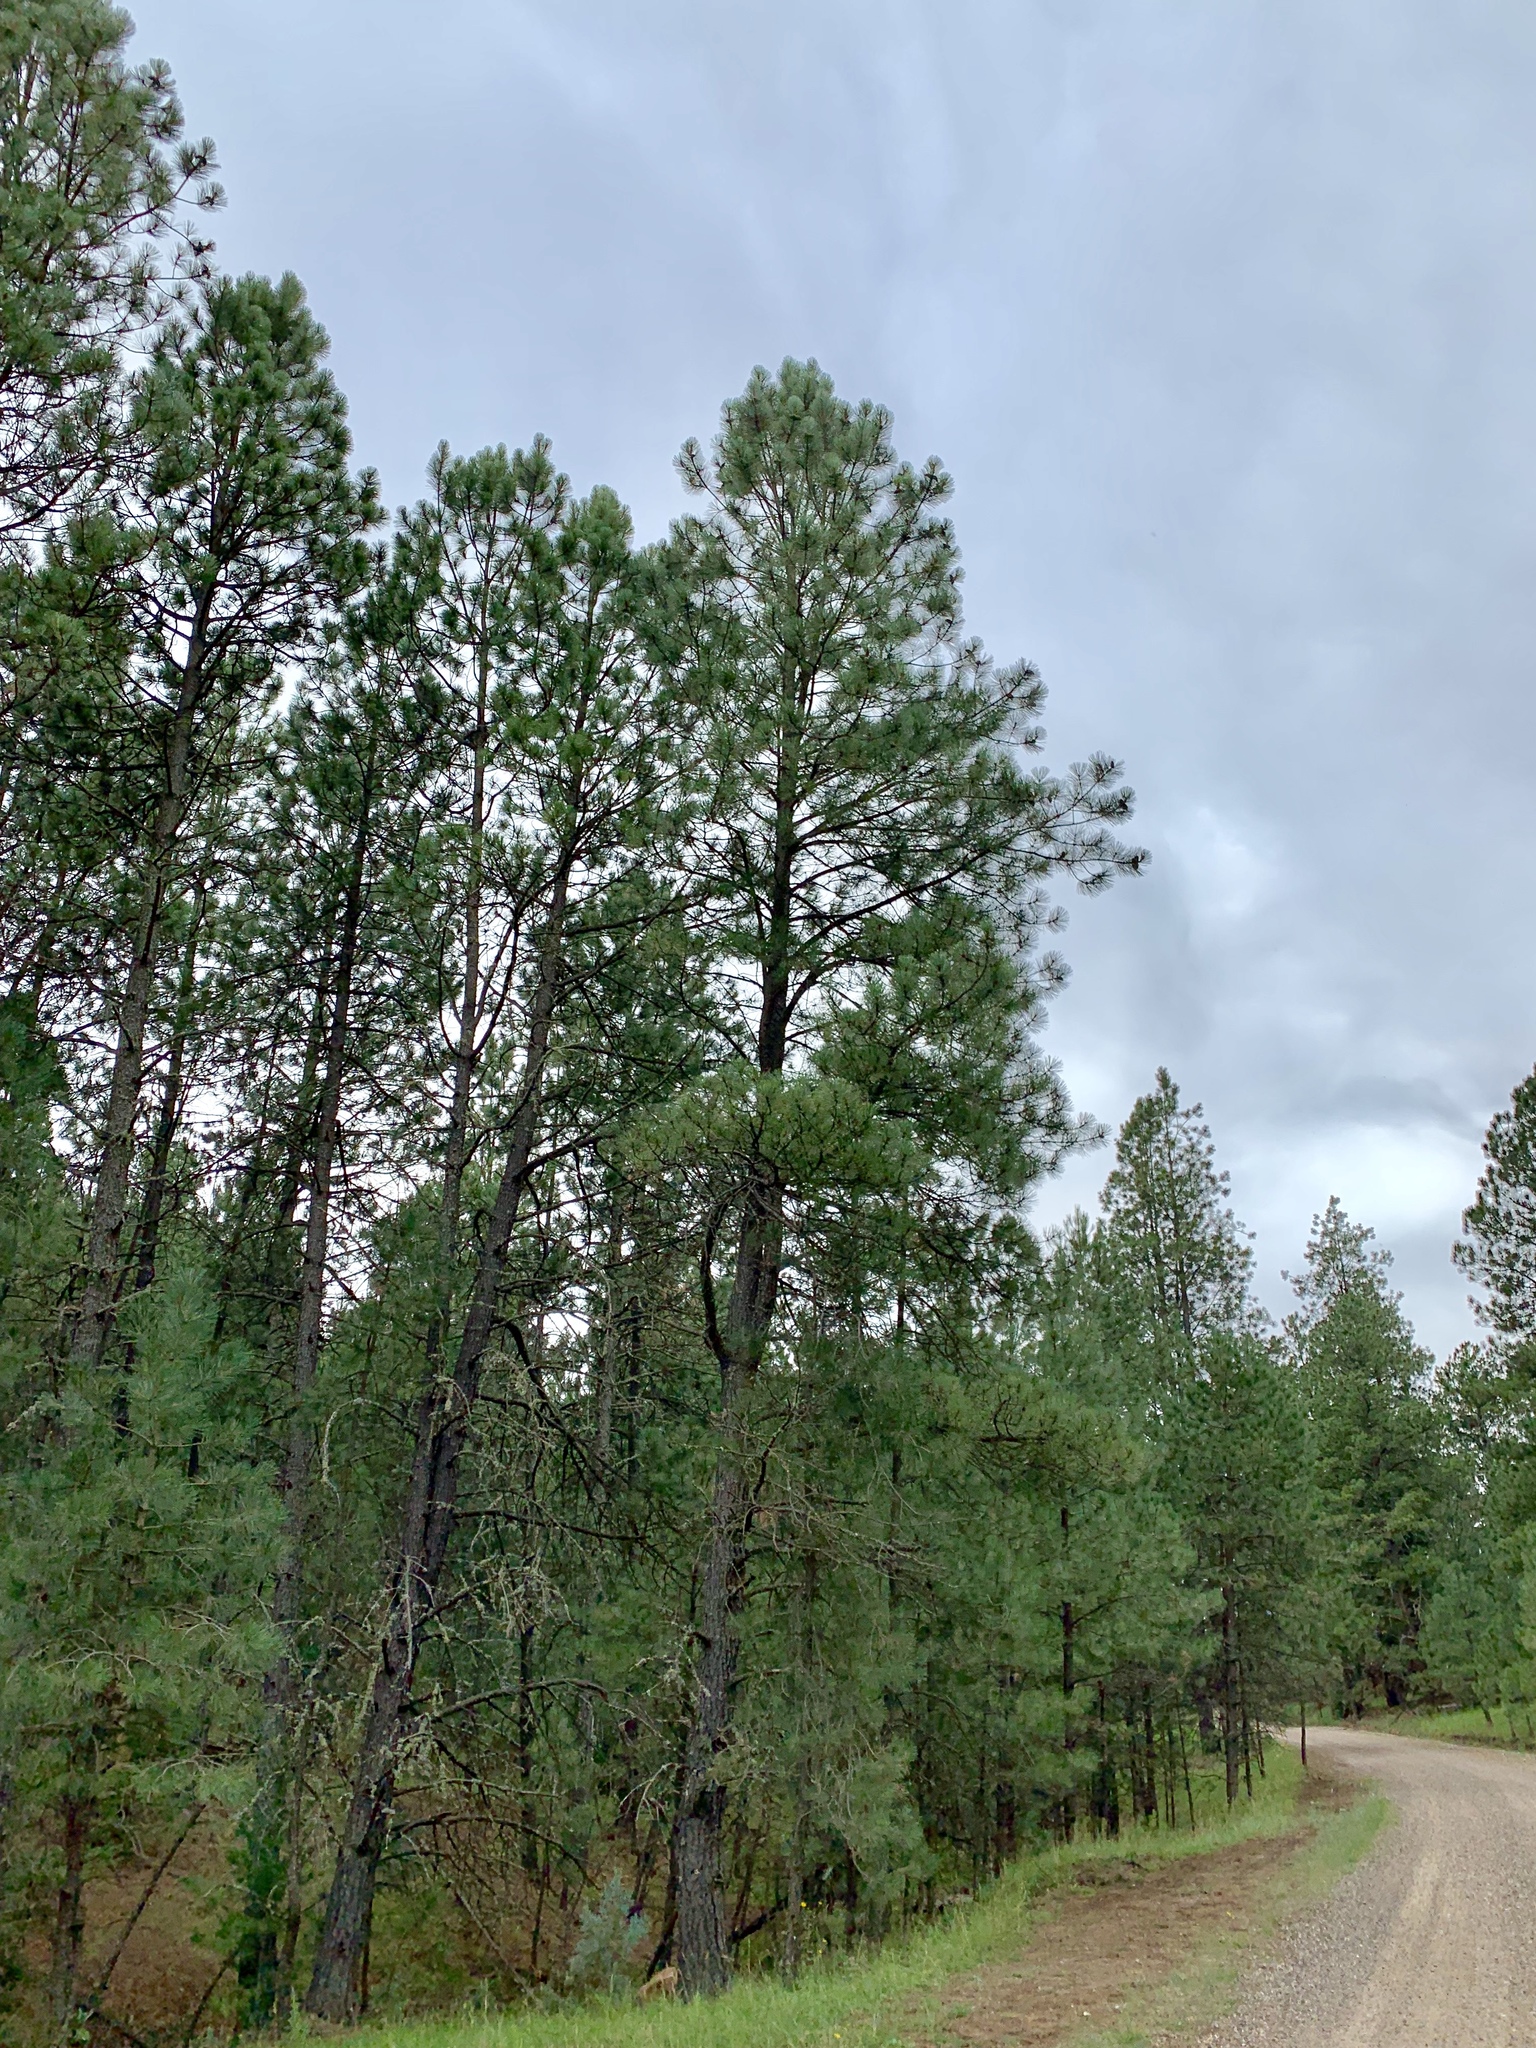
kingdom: Plantae
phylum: Tracheophyta
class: Pinopsida
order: Pinales
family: Pinaceae
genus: Pinus
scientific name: Pinus ponderosa
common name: Western yellow-pine
